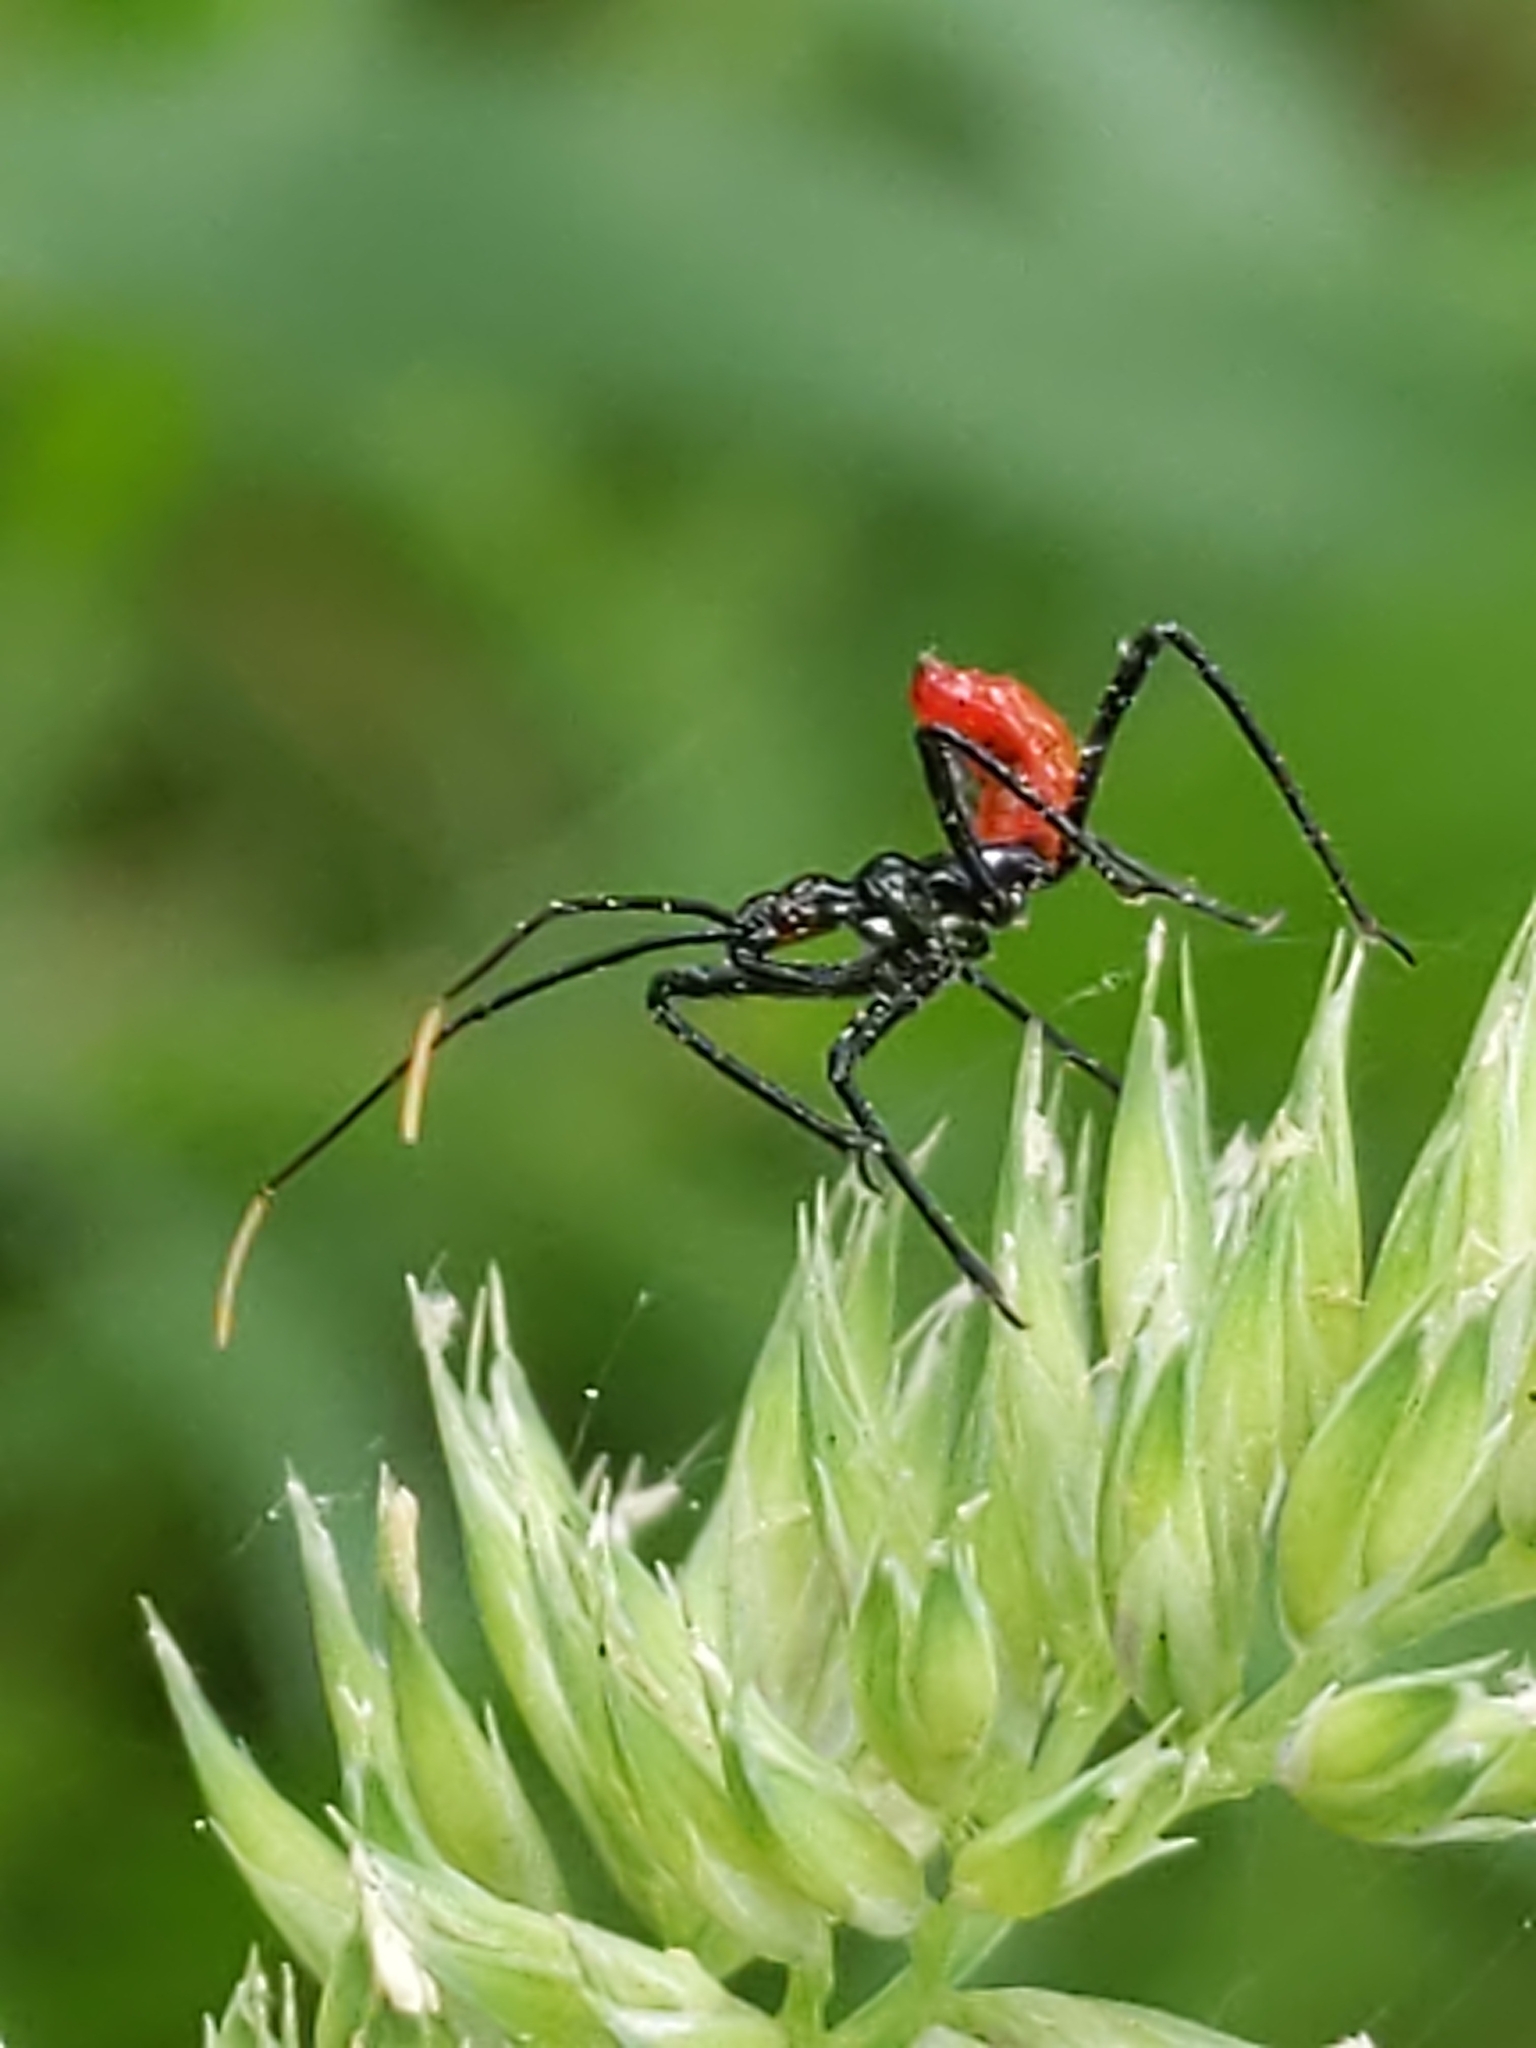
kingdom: Animalia
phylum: Arthropoda
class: Insecta
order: Hemiptera
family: Reduviidae
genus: Arilus
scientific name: Arilus cristatus
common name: North american wheel bug
